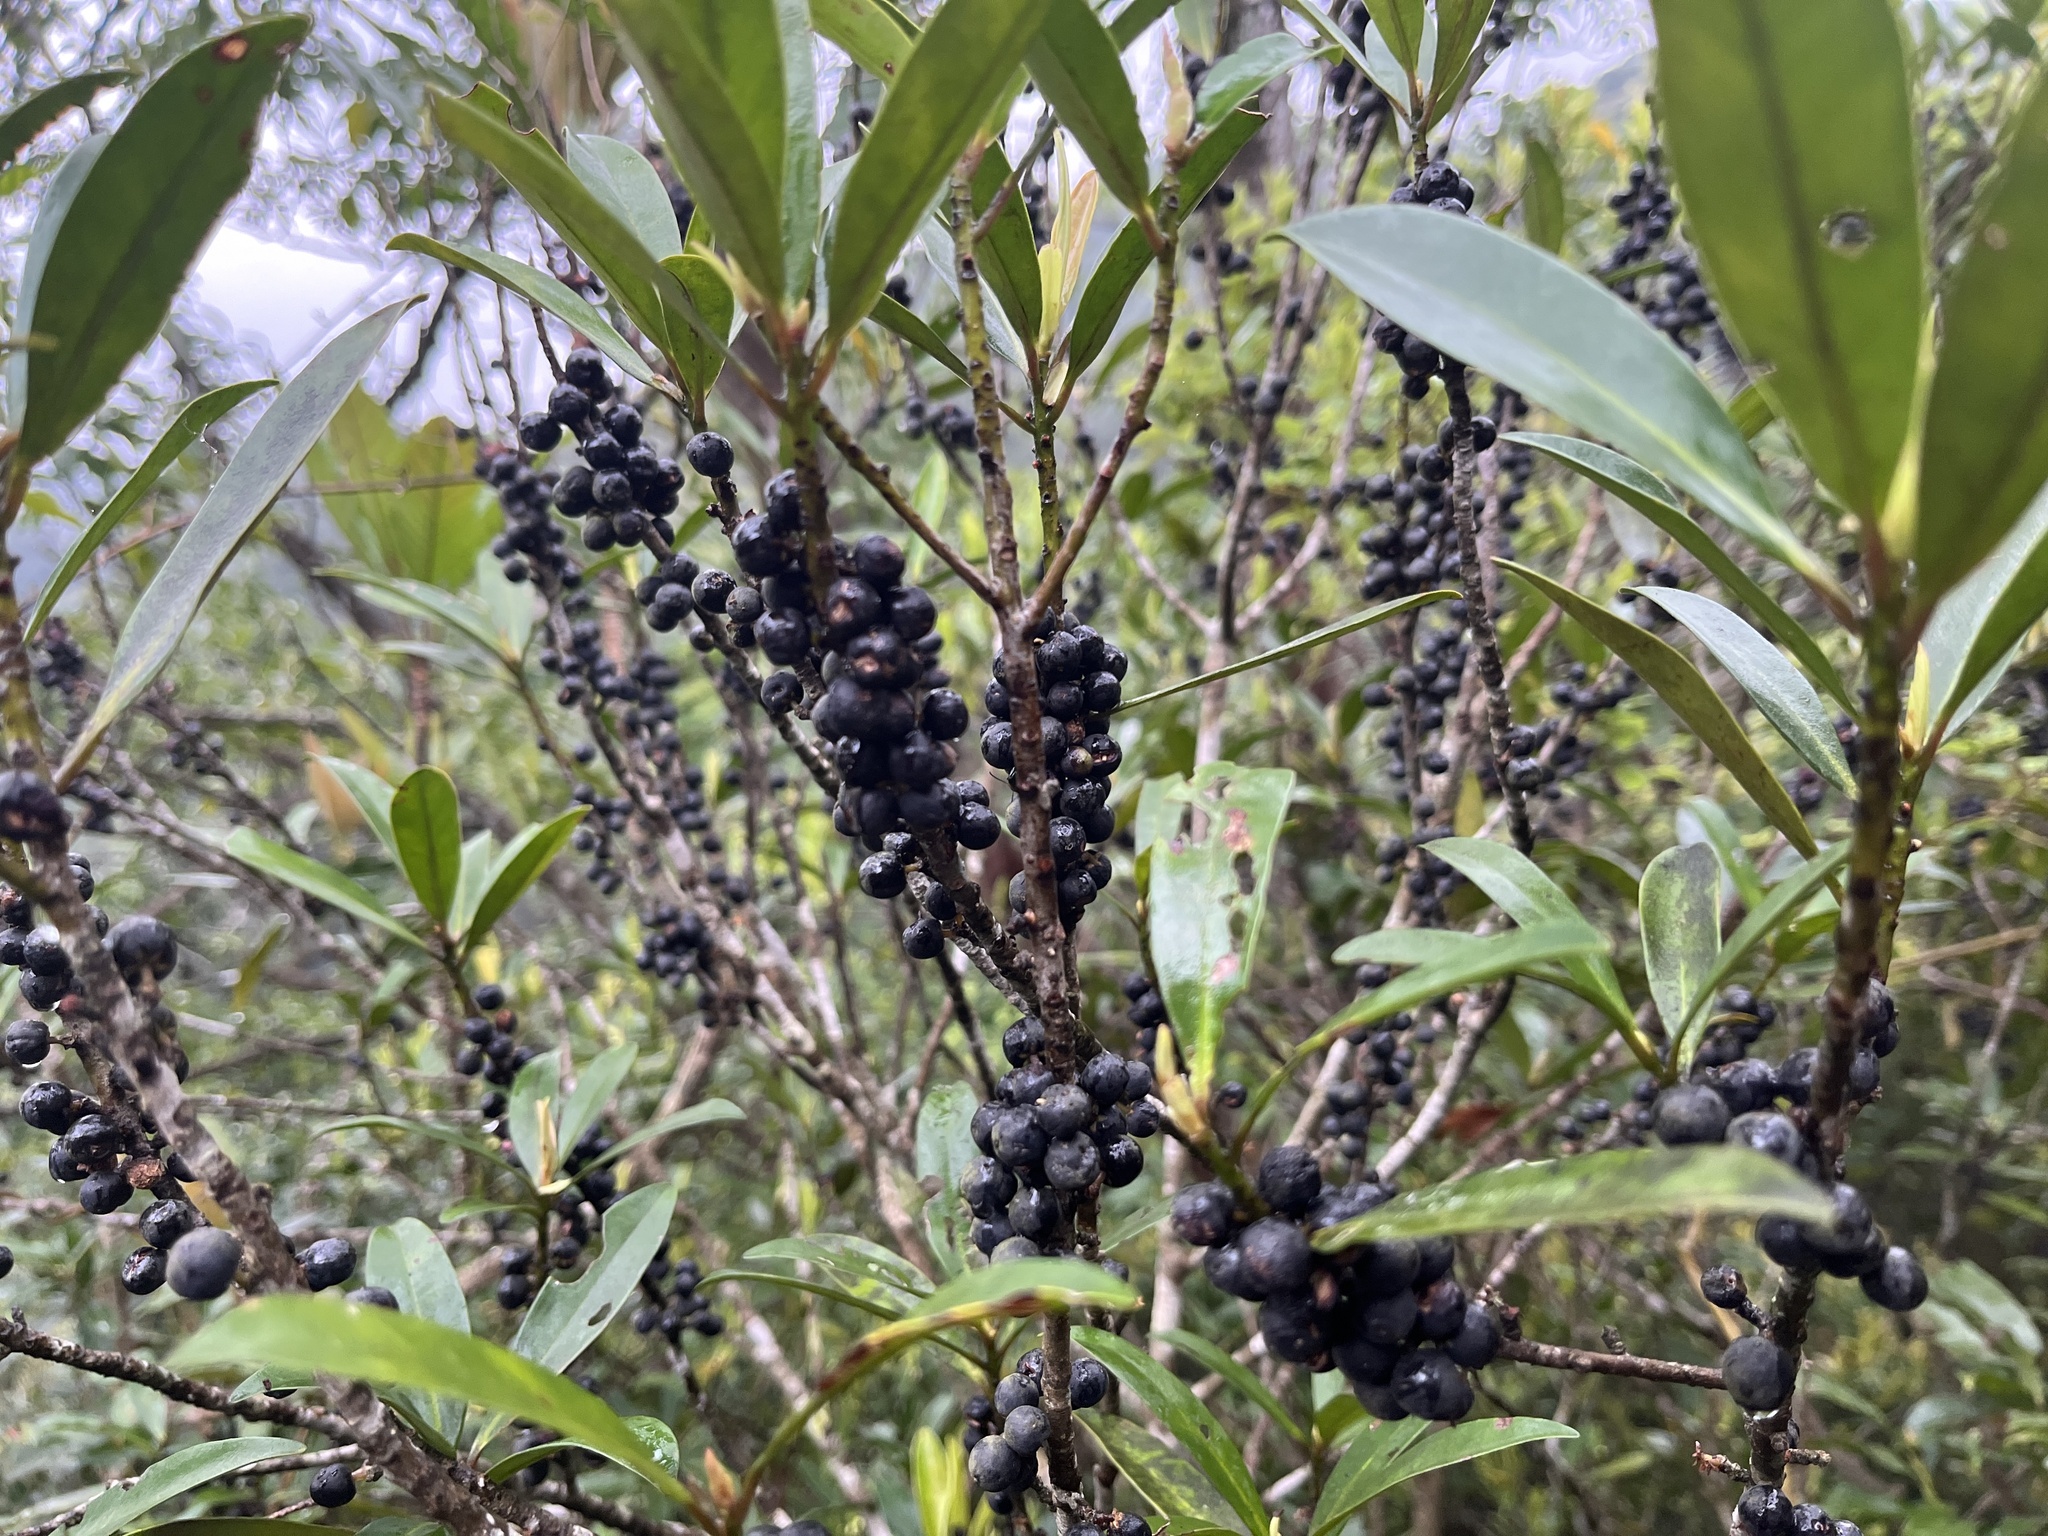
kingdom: Plantae
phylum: Tracheophyta
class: Magnoliopsida
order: Ericales
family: Primulaceae
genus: Myrsine
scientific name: Myrsine seguinii
